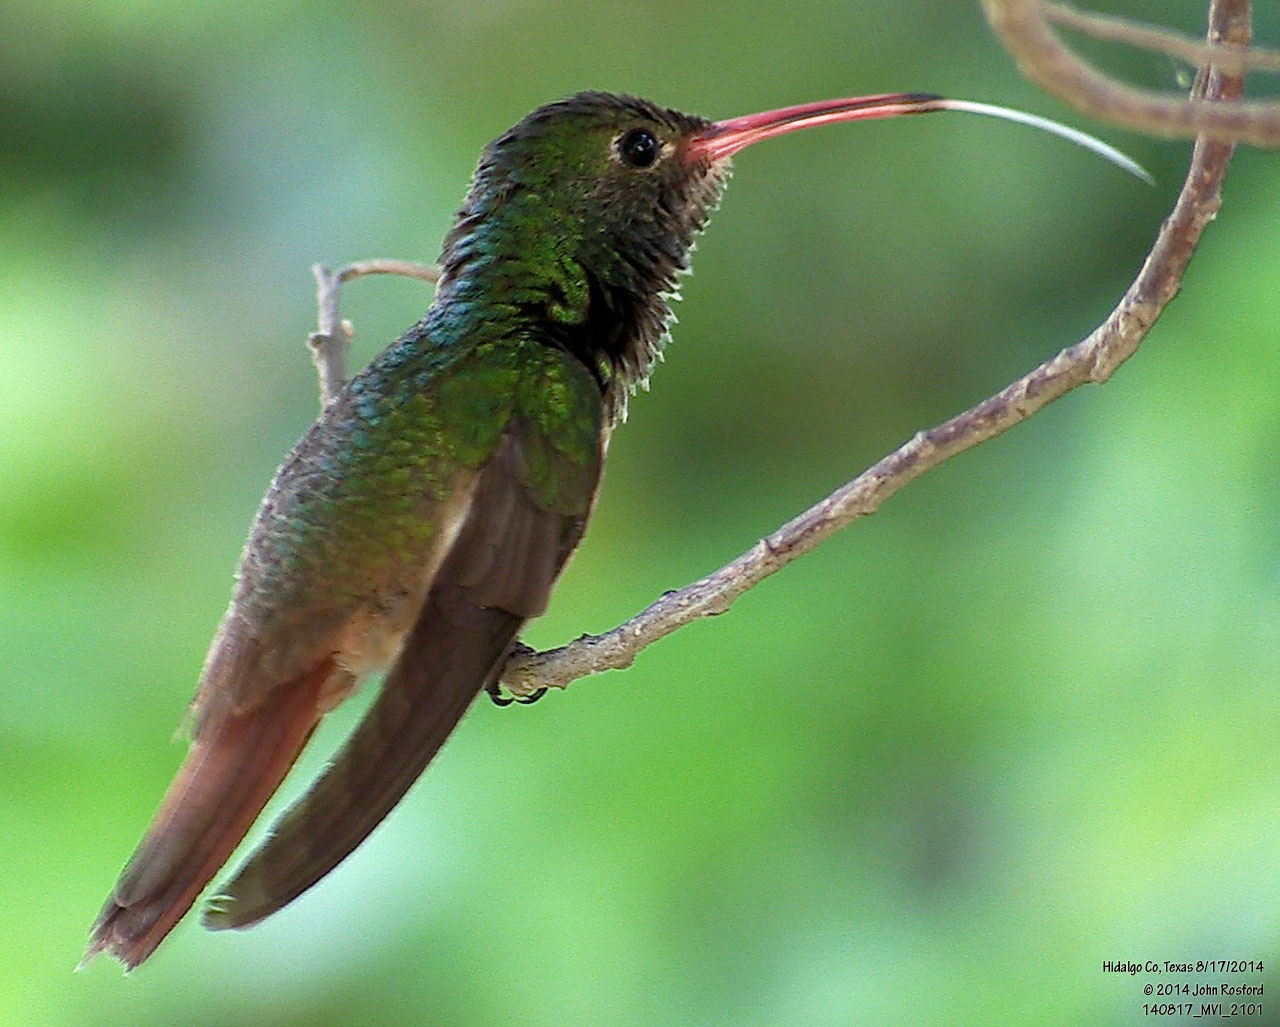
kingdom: Animalia
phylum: Chordata
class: Aves
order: Apodiformes
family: Trochilidae
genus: Amazilia
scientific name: Amazilia yucatanensis
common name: Buff-bellied hummingbird
